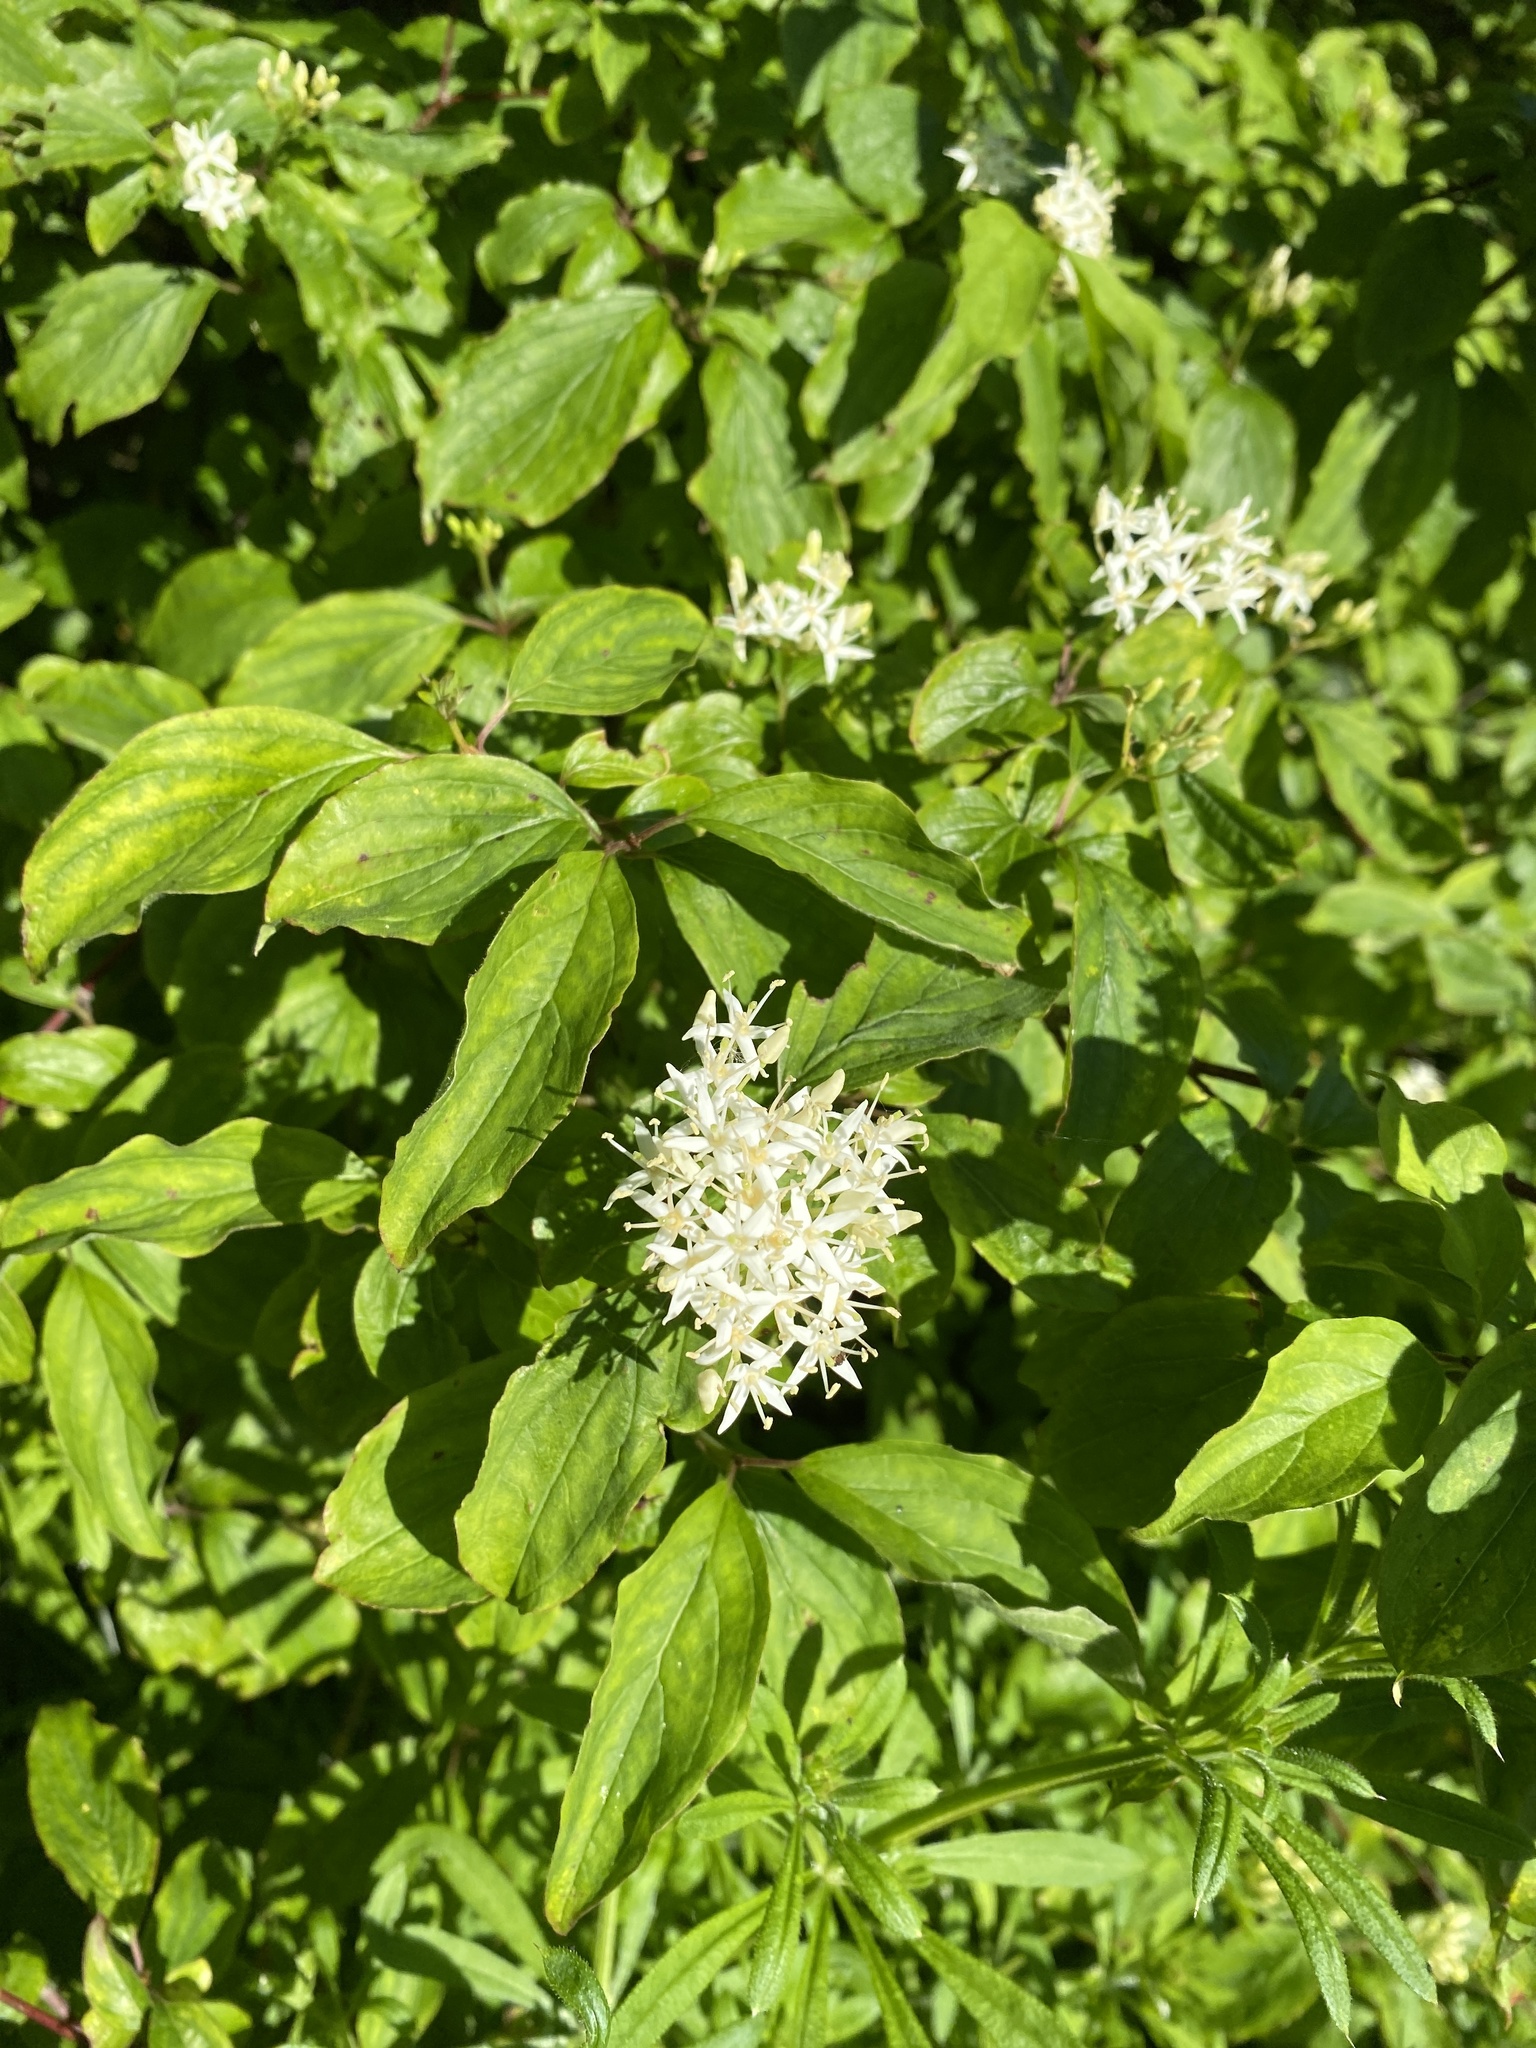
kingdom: Plantae
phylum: Tracheophyta
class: Magnoliopsida
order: Cornales
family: Cornaceae
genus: Cornus
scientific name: Cornus sanguinea
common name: Dogwood
